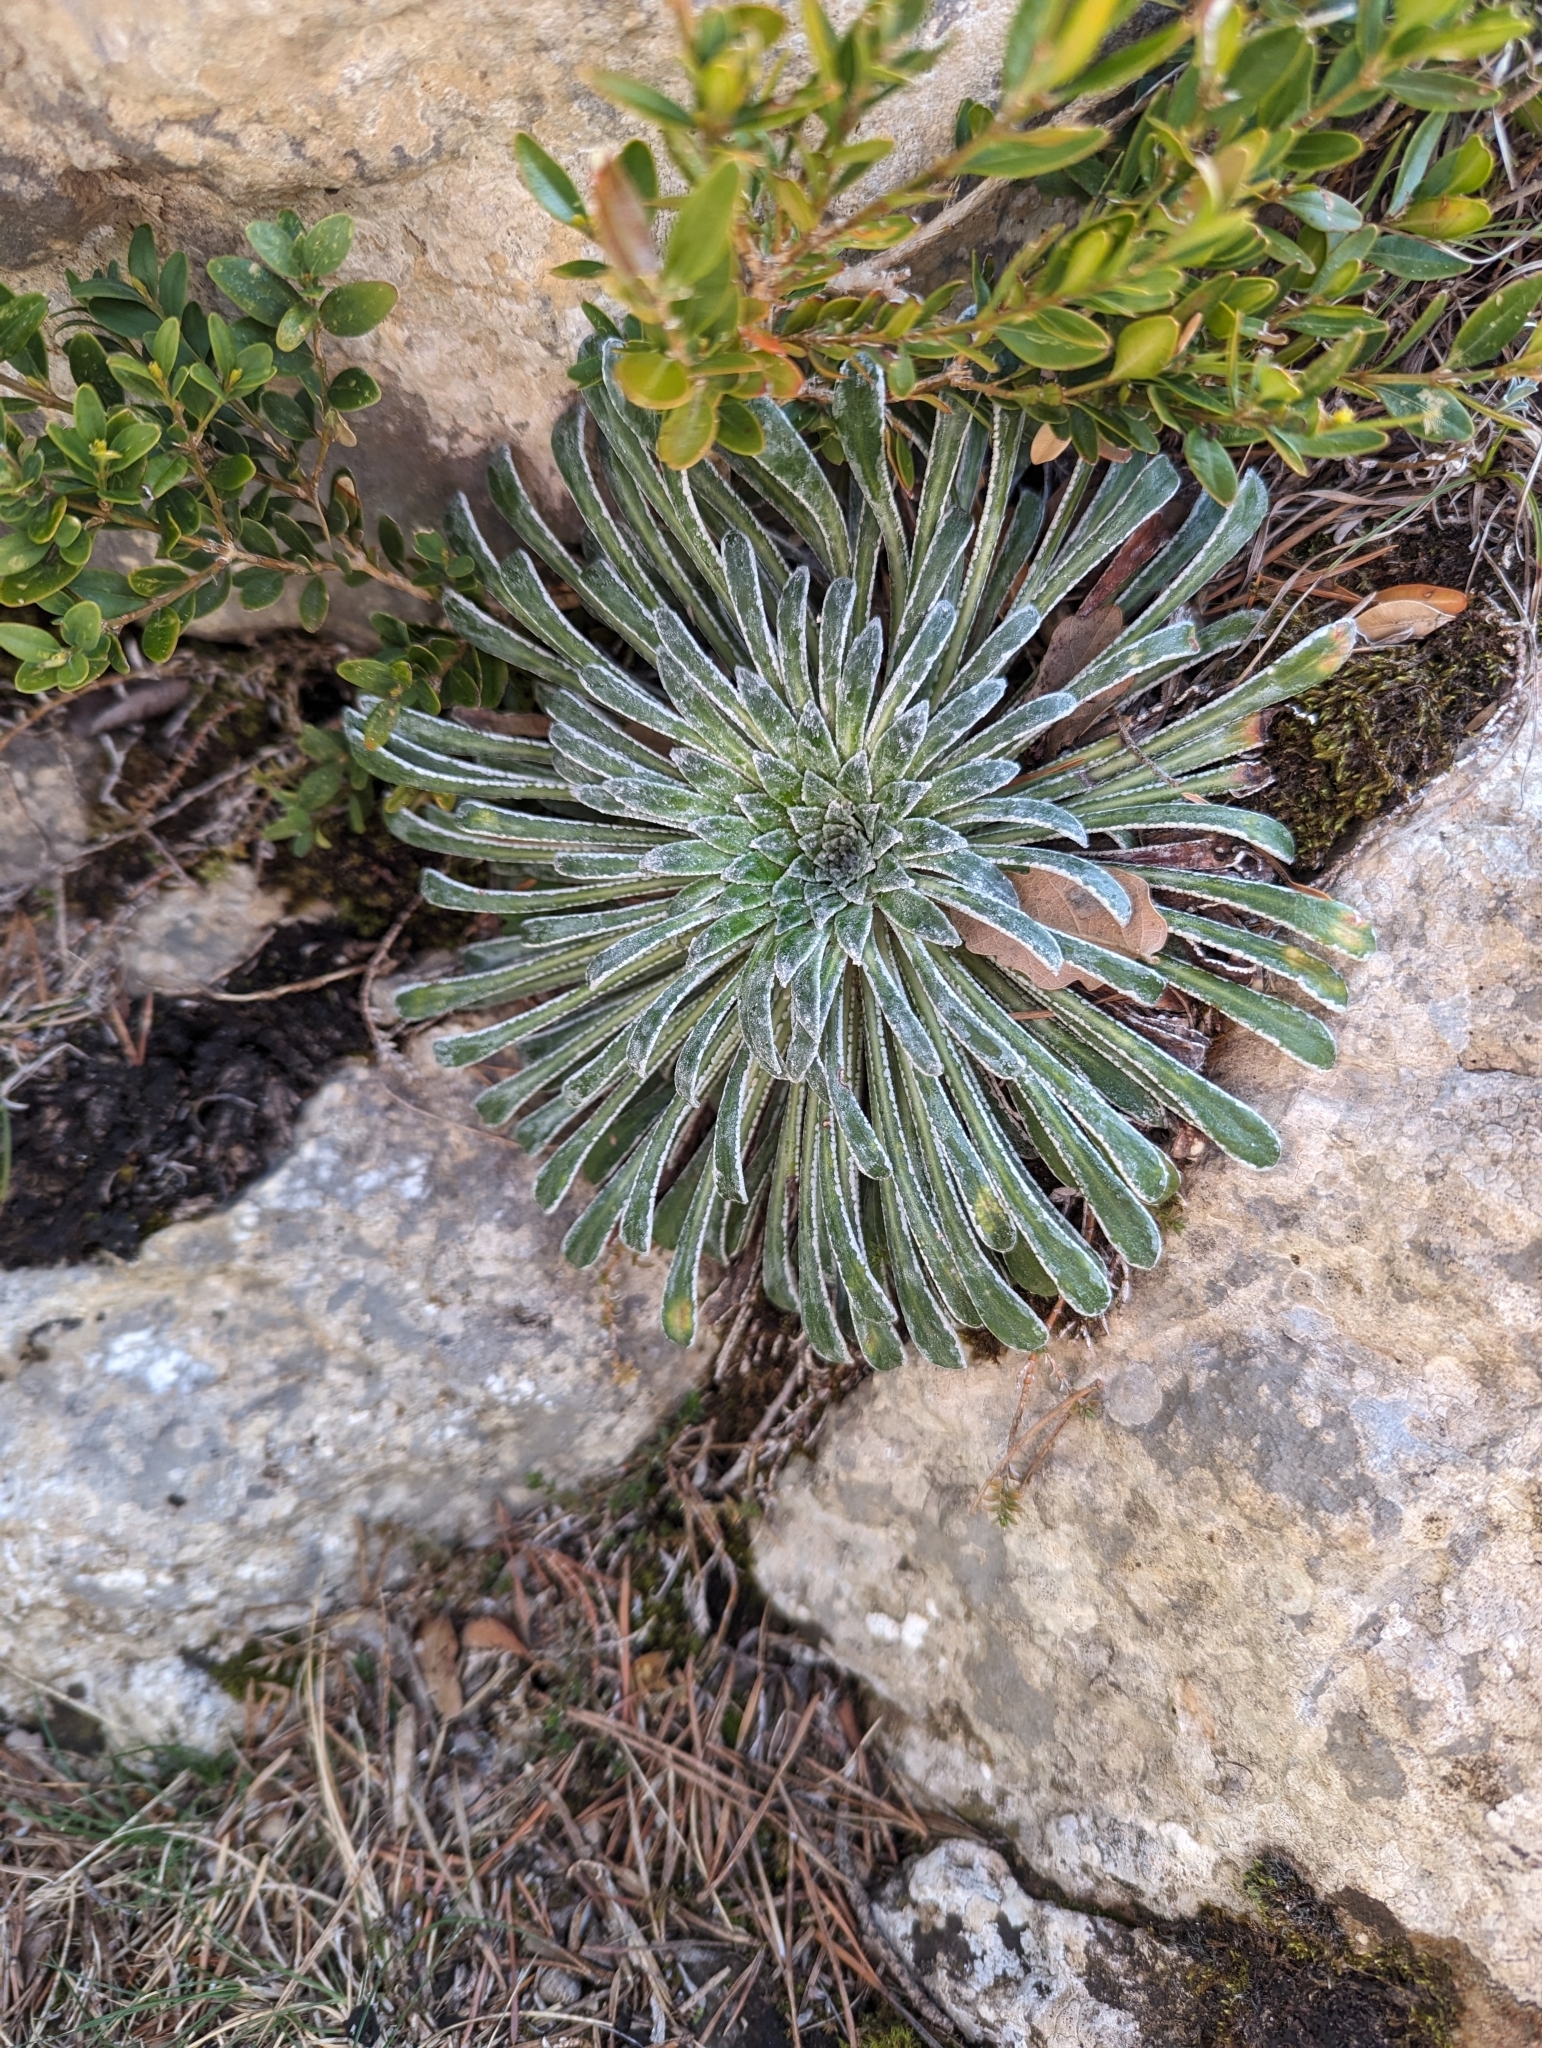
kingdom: Plantae
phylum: Tracheophyta
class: Magnoliopsida
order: Saxifragales
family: Saxifragaceae
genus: Saxifraga
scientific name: Saxifraga longifolia
